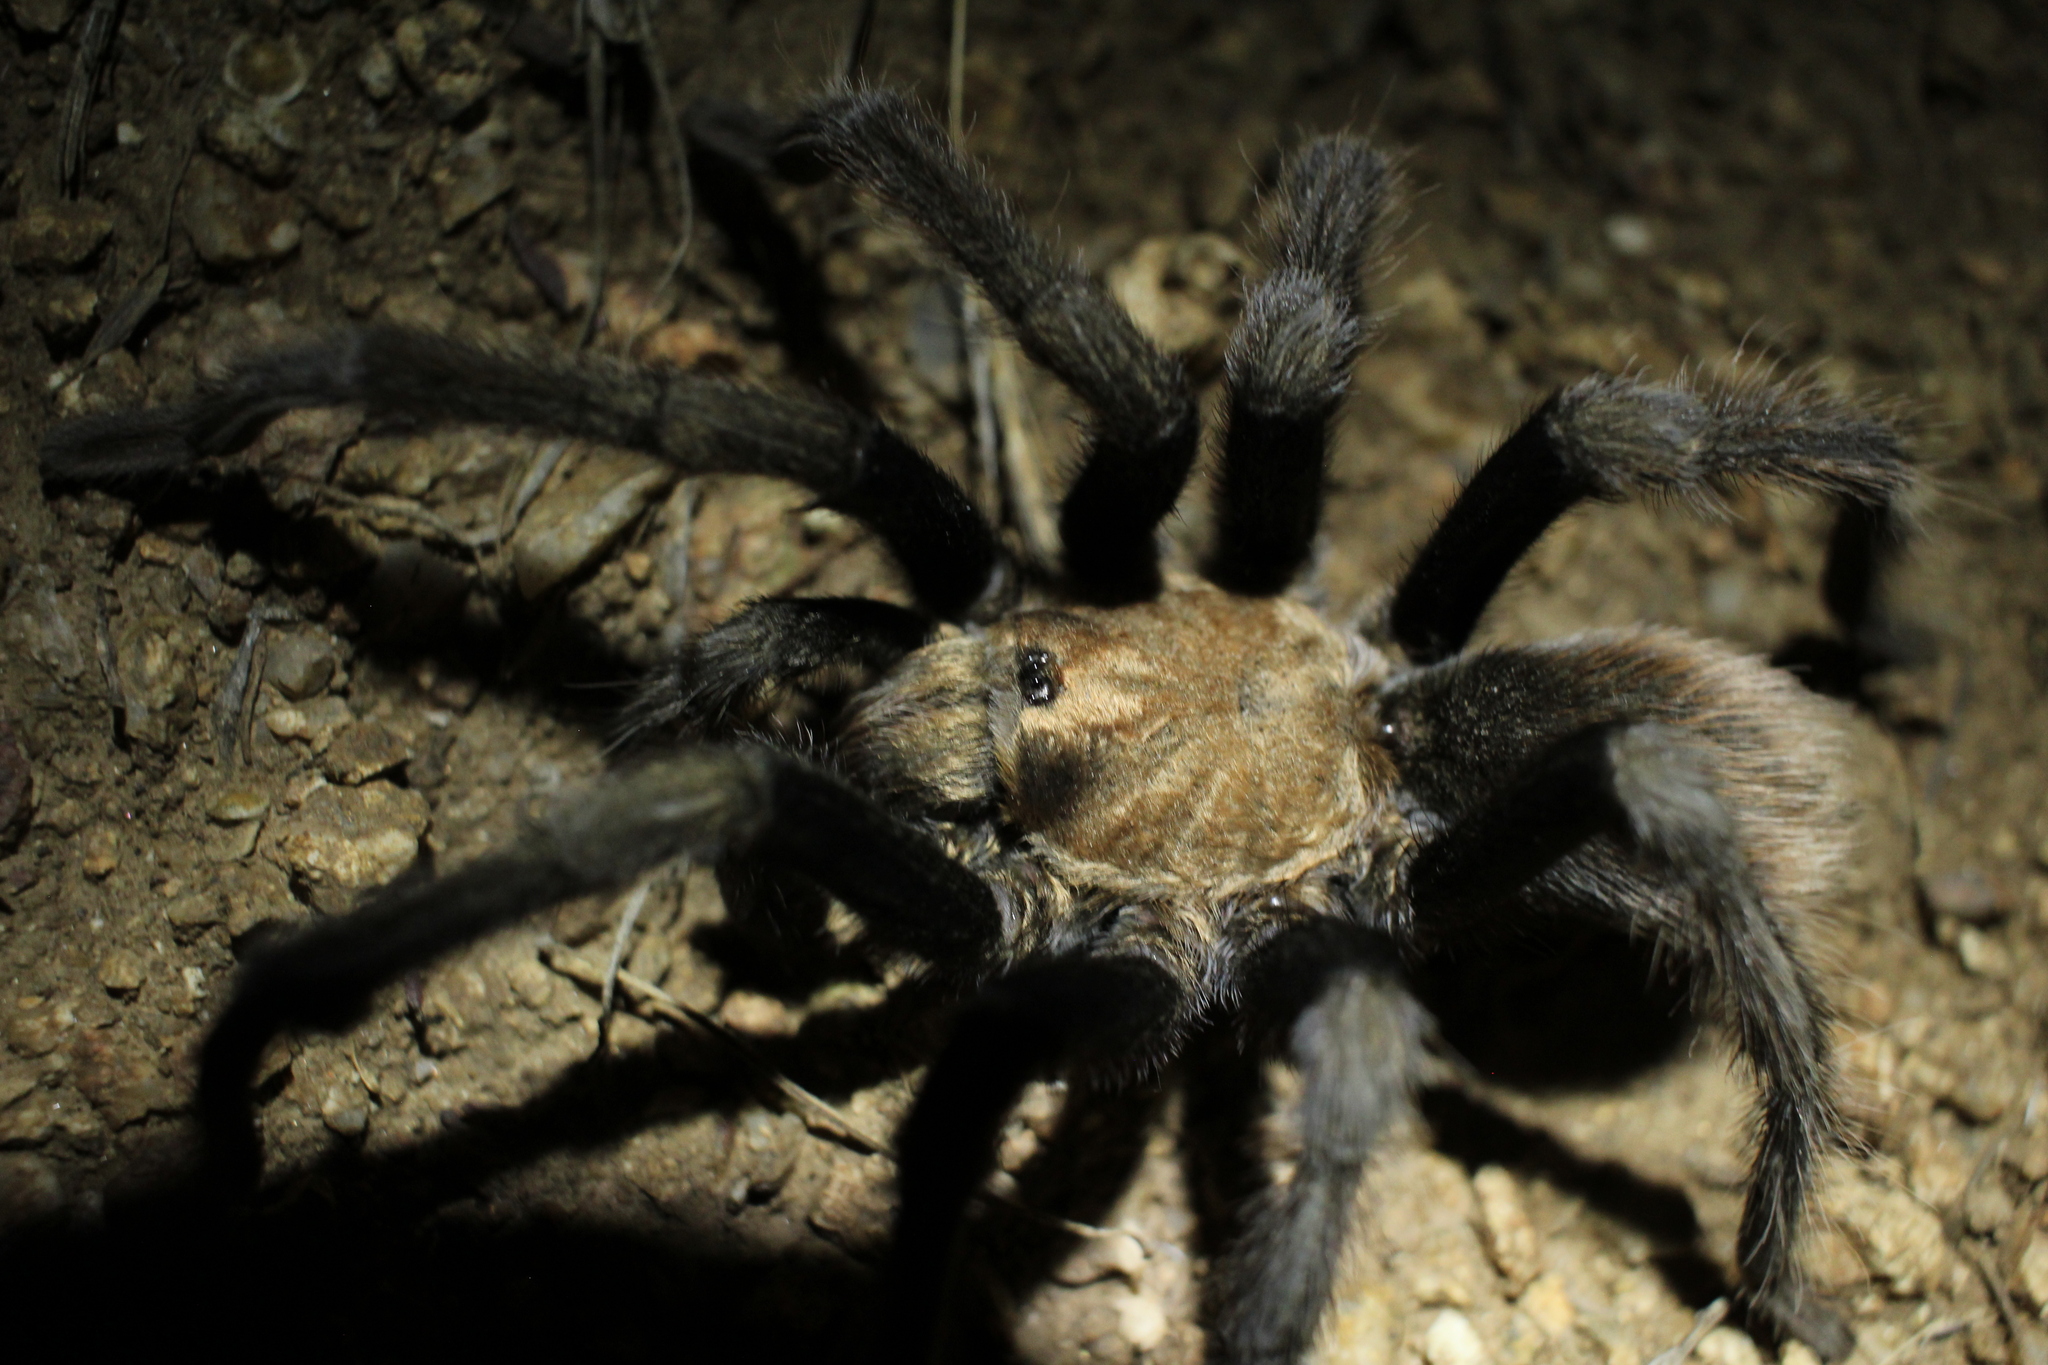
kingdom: Animalia
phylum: Arthropoda
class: Arachnida
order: Araneae
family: Theraphosidae
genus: Aphonopelma
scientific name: Aphonopelma iodius
